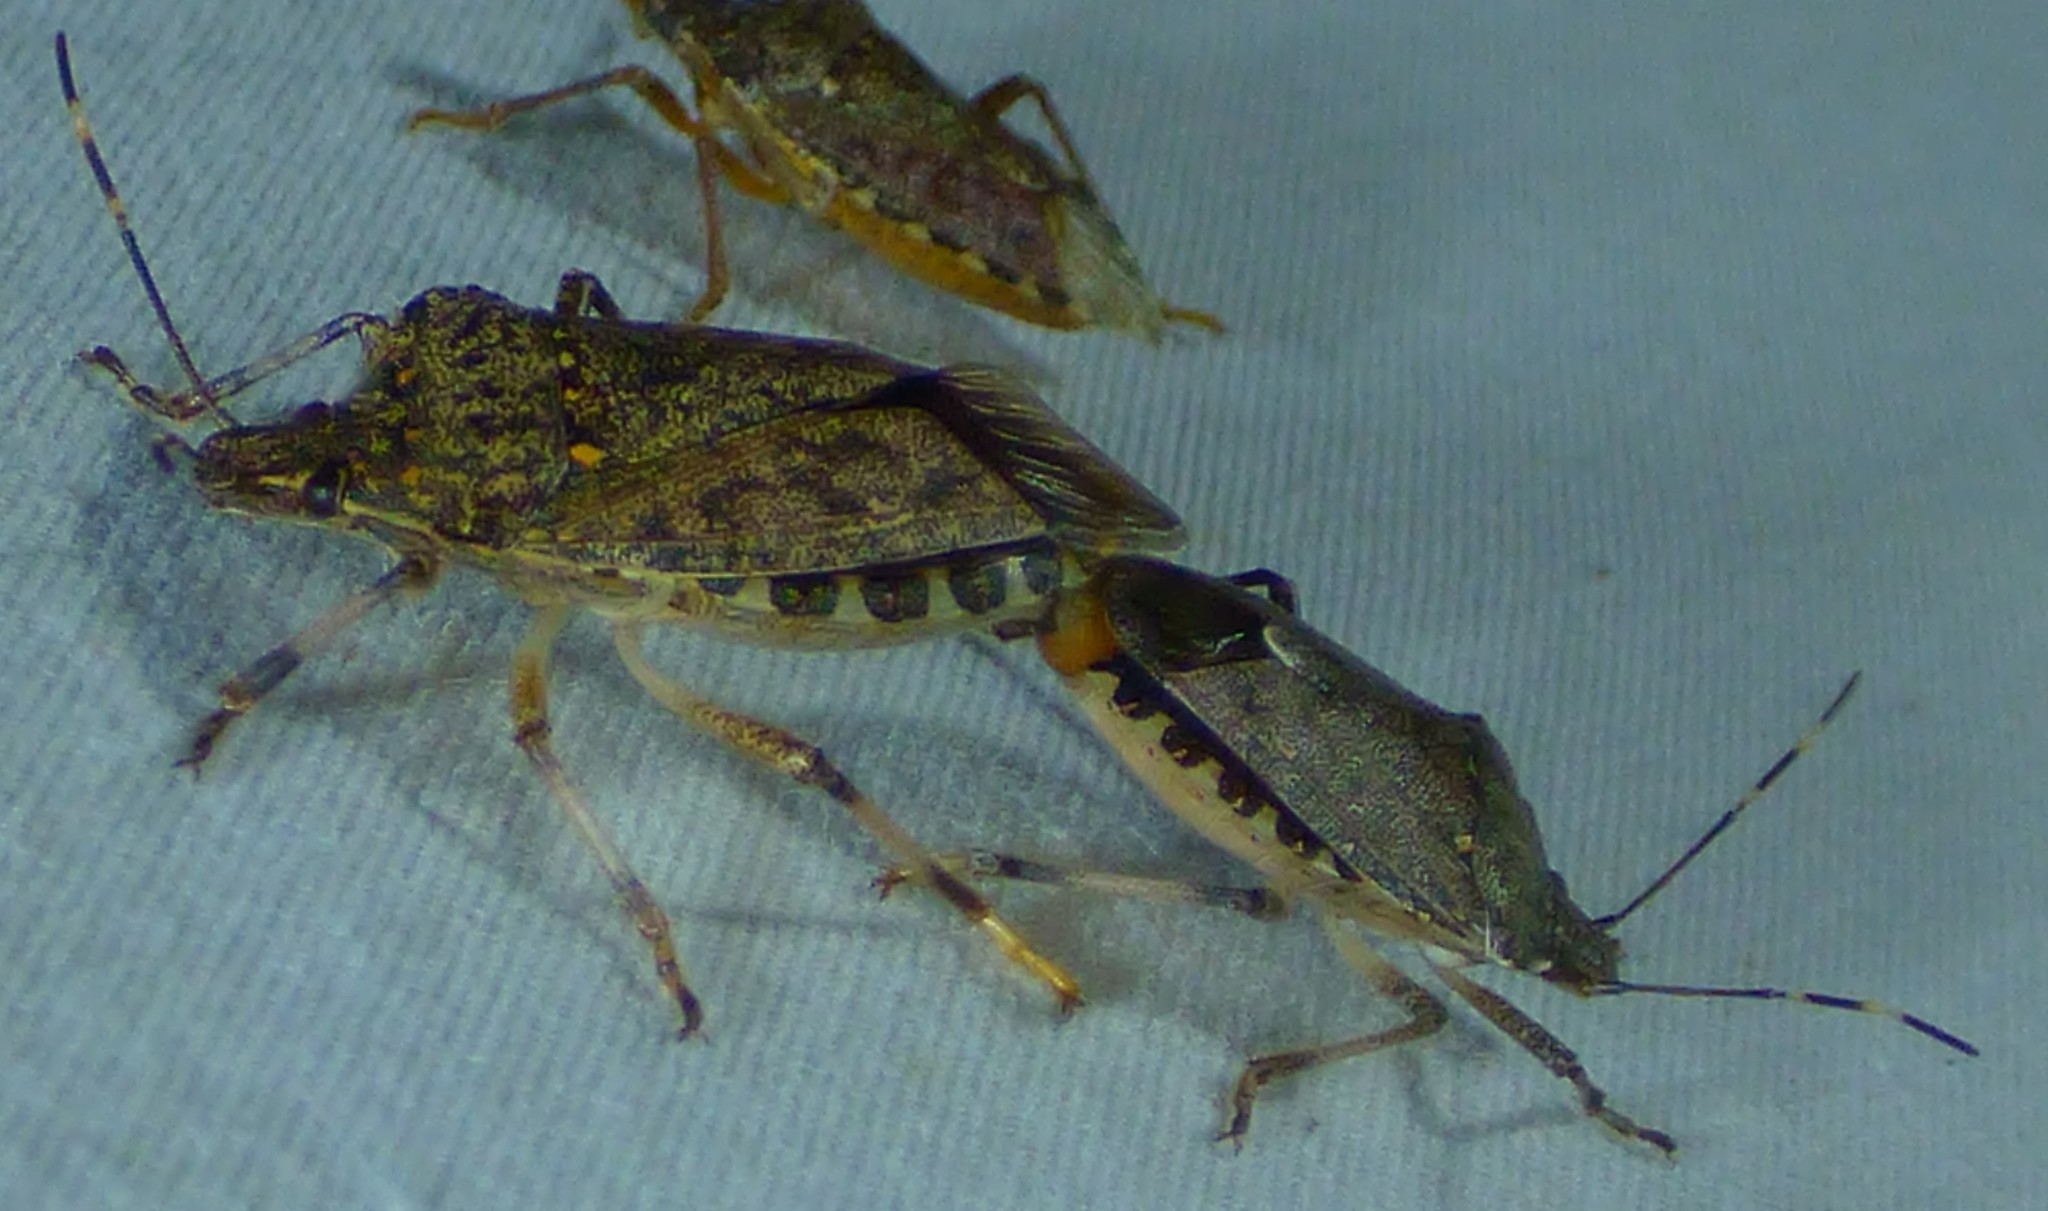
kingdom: Animalia
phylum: Arthropoda
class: Insecta
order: Hemiptera
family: Pentatomidae
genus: Halyomorpha
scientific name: Halyomorpha halys
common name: Brown marmorated stink bug
